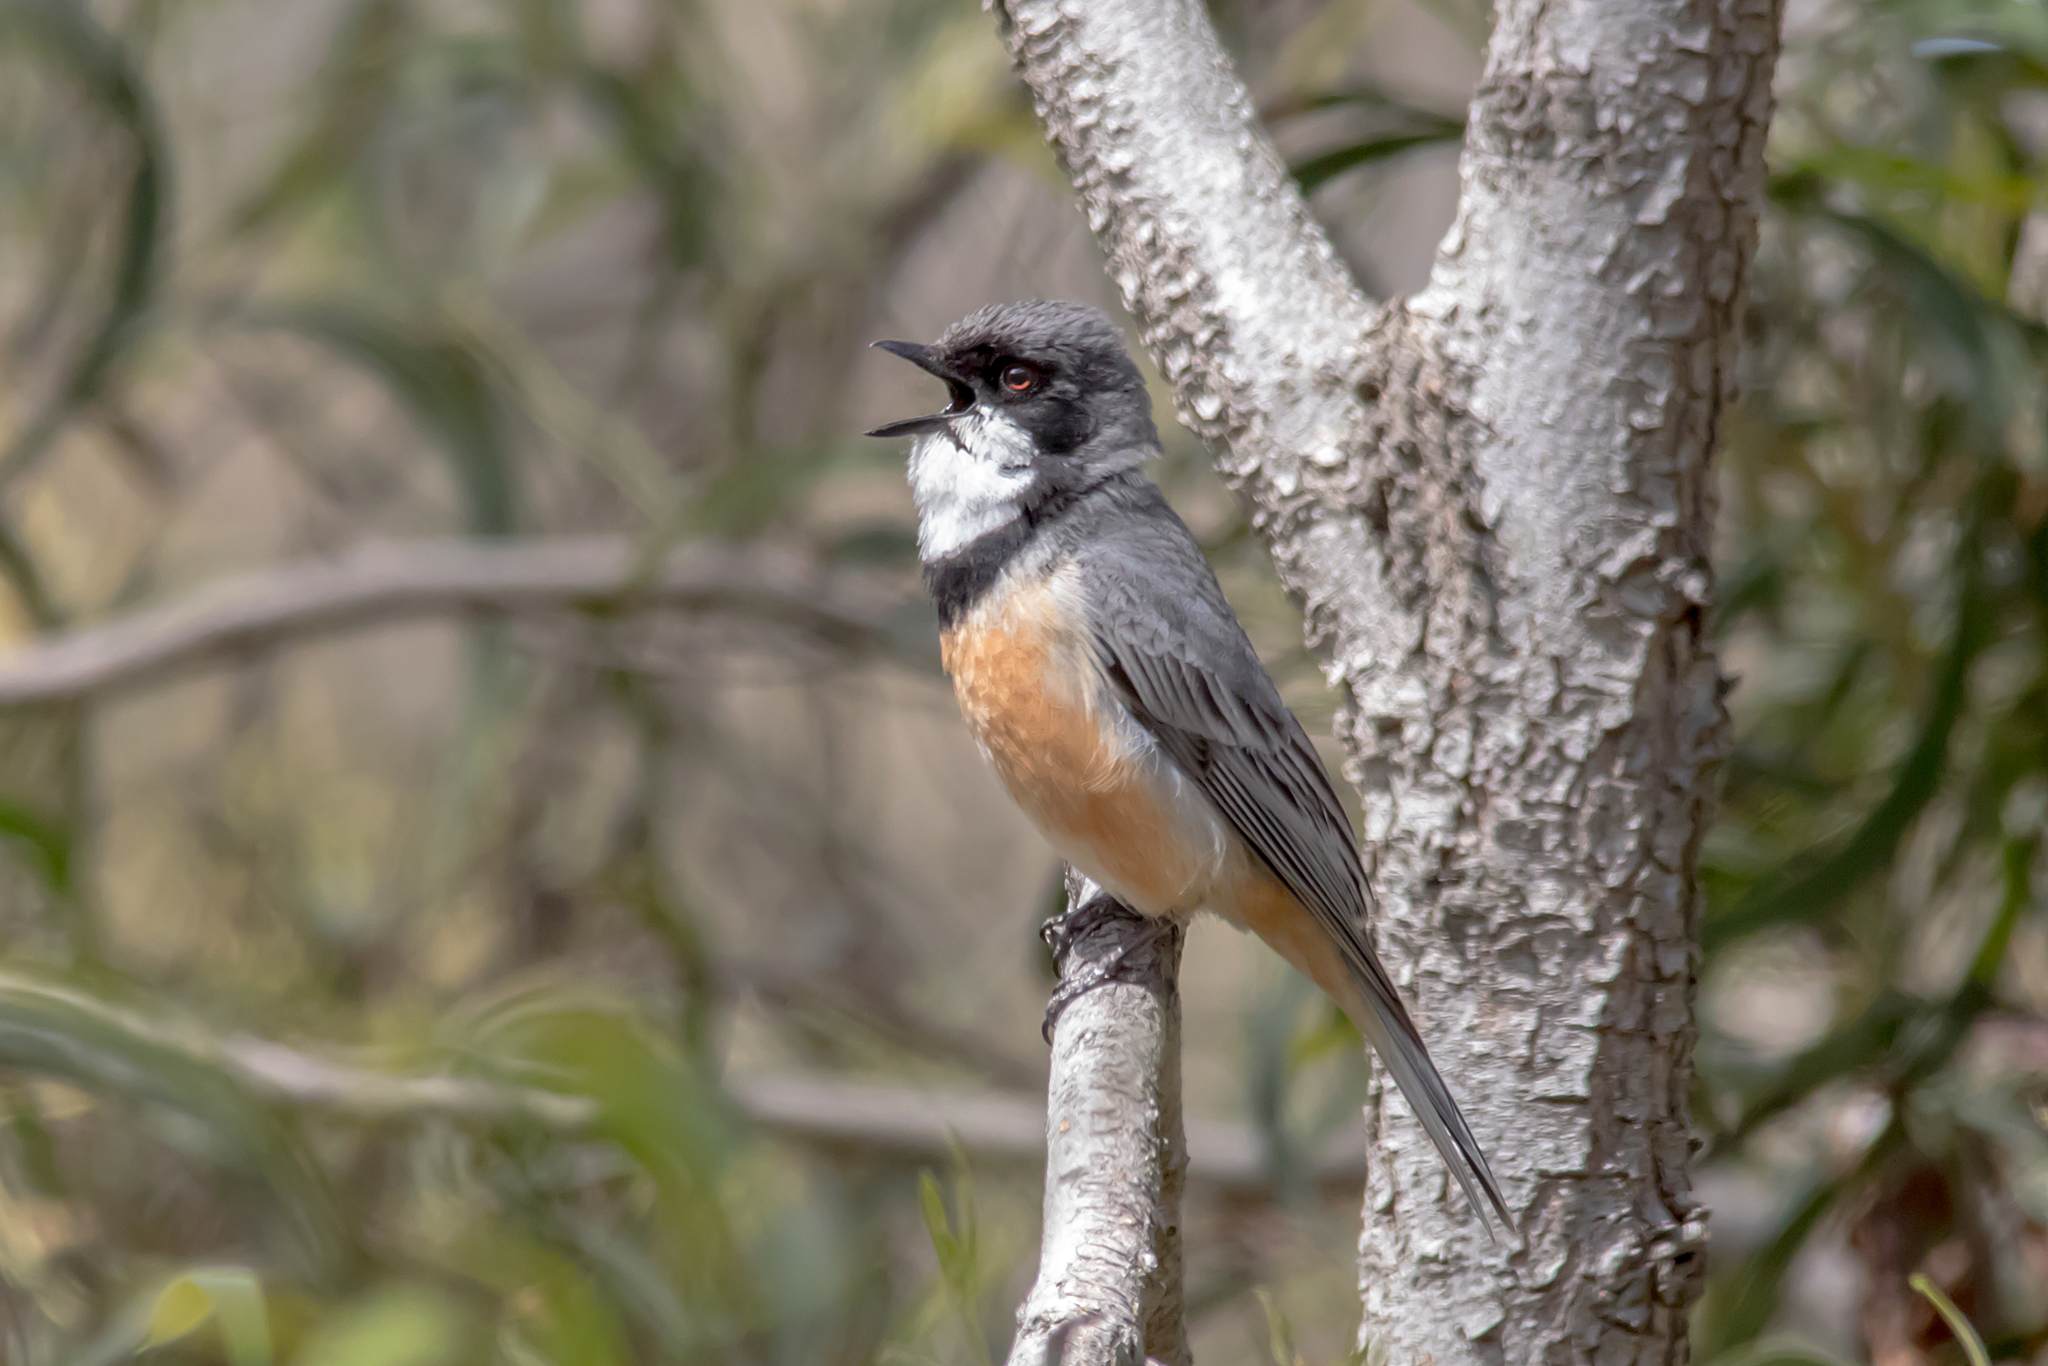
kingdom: Animalia
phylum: Chordata
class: Aves
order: Passeriformes
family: Pachycephalidae
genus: Pachycephala
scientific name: Pachycephala rufiventris
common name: Rufous whistler
